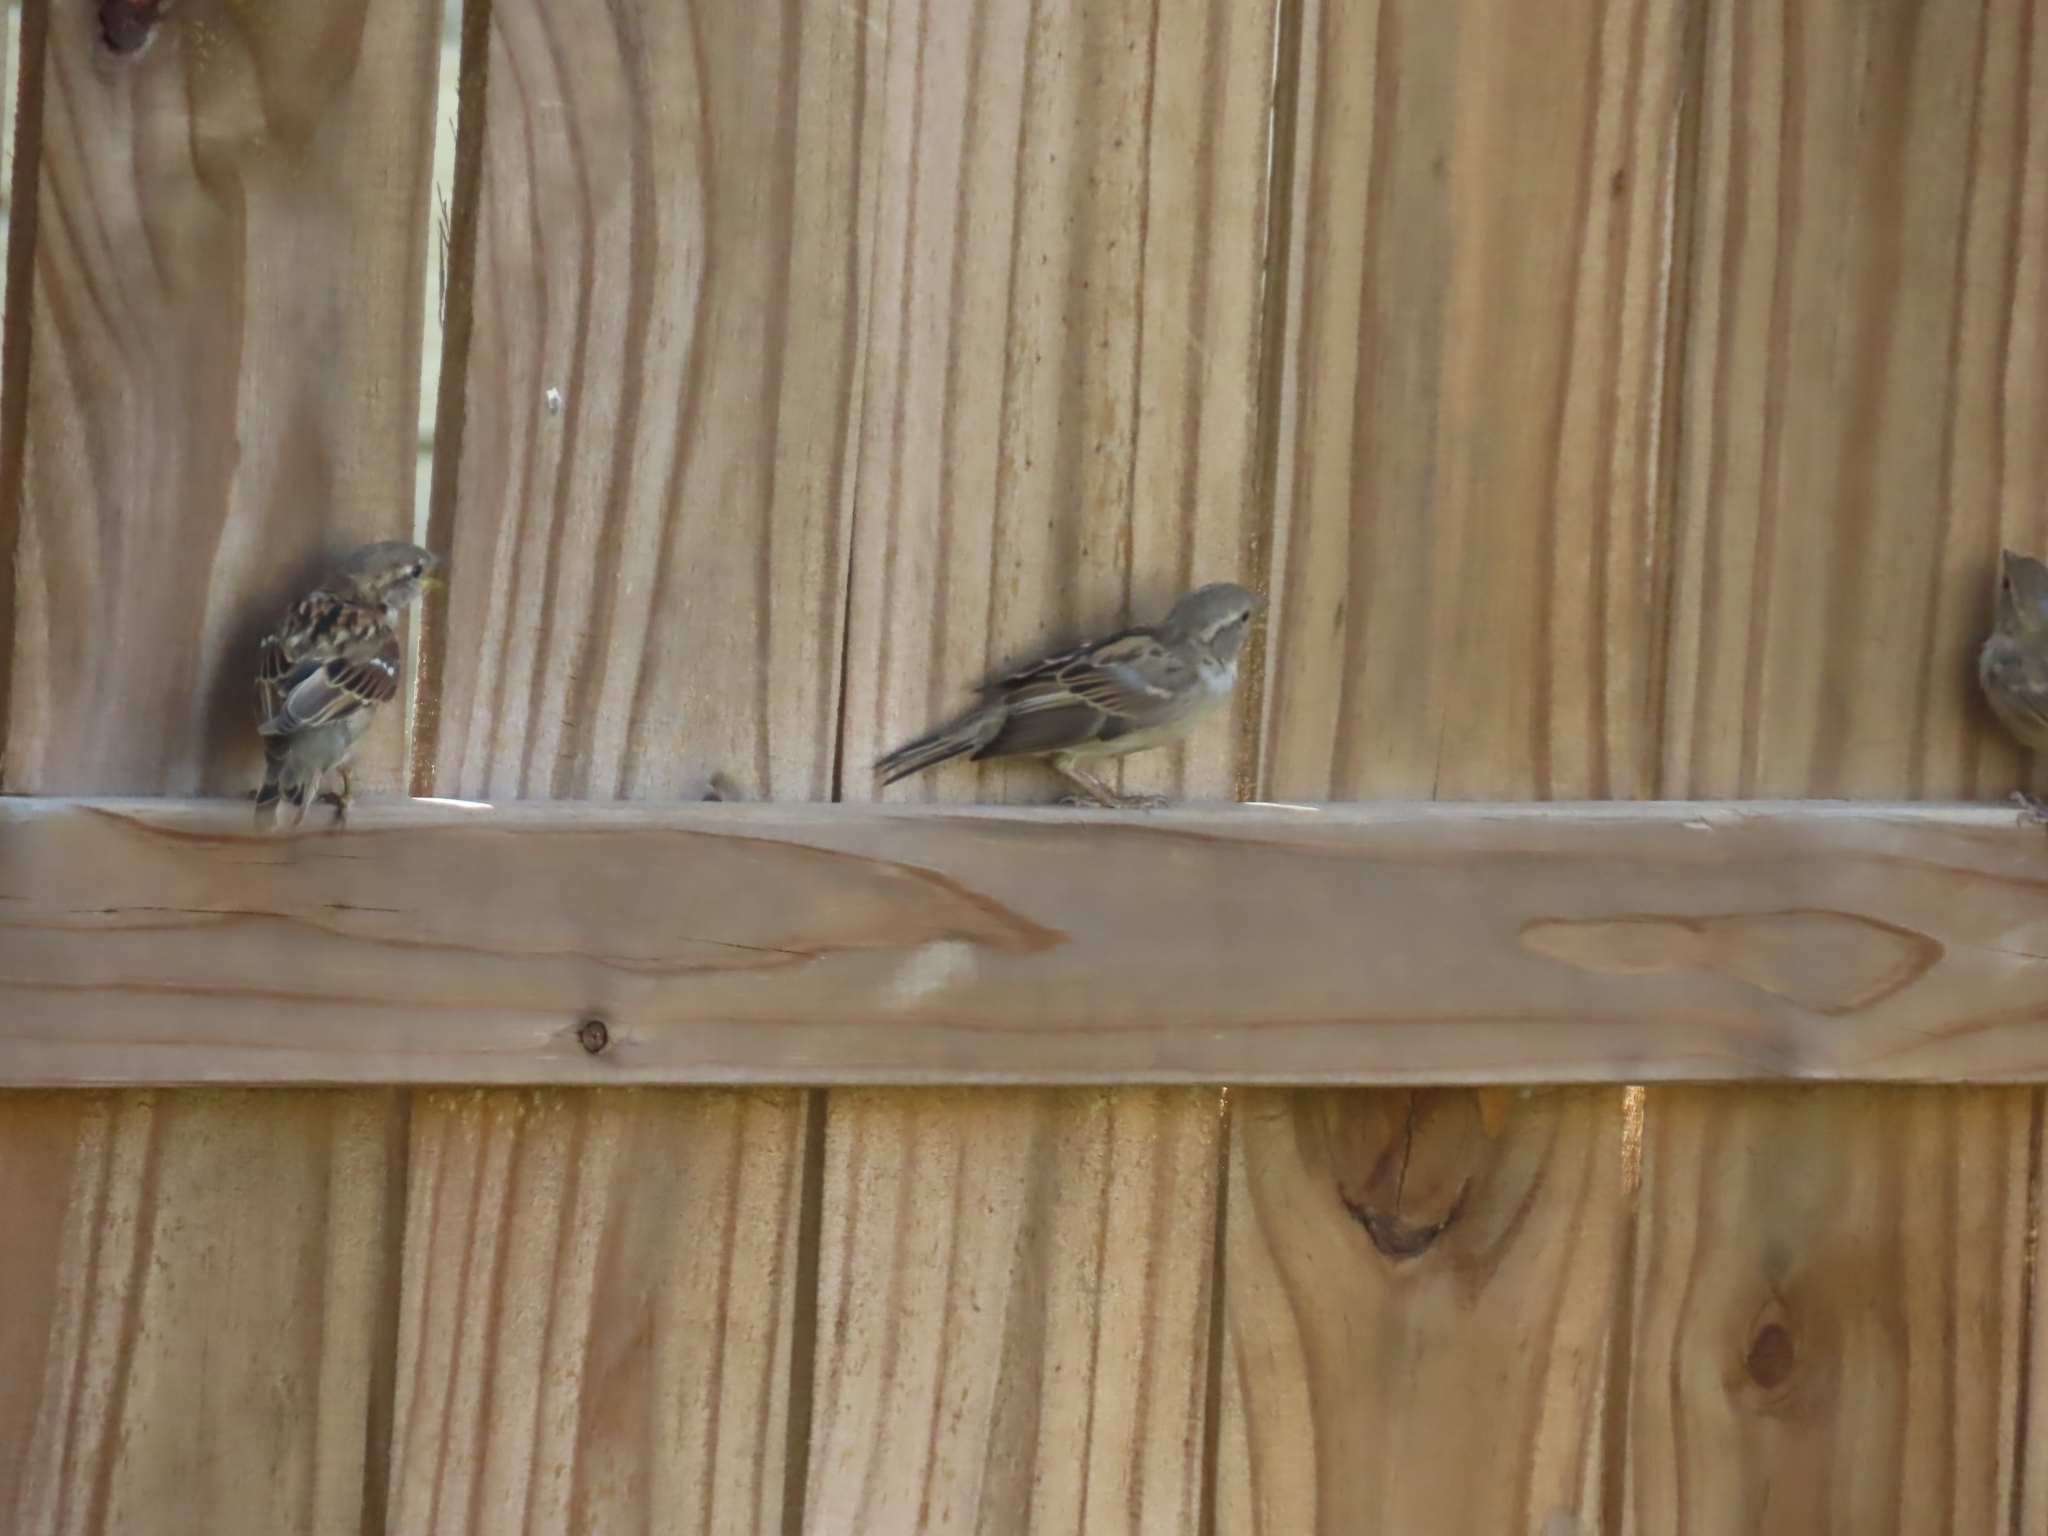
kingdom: Animalia
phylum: Chordata
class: Aves
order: Passeriformes
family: Passeridae
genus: Passer
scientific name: Passer domesticus
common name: House sparrow
